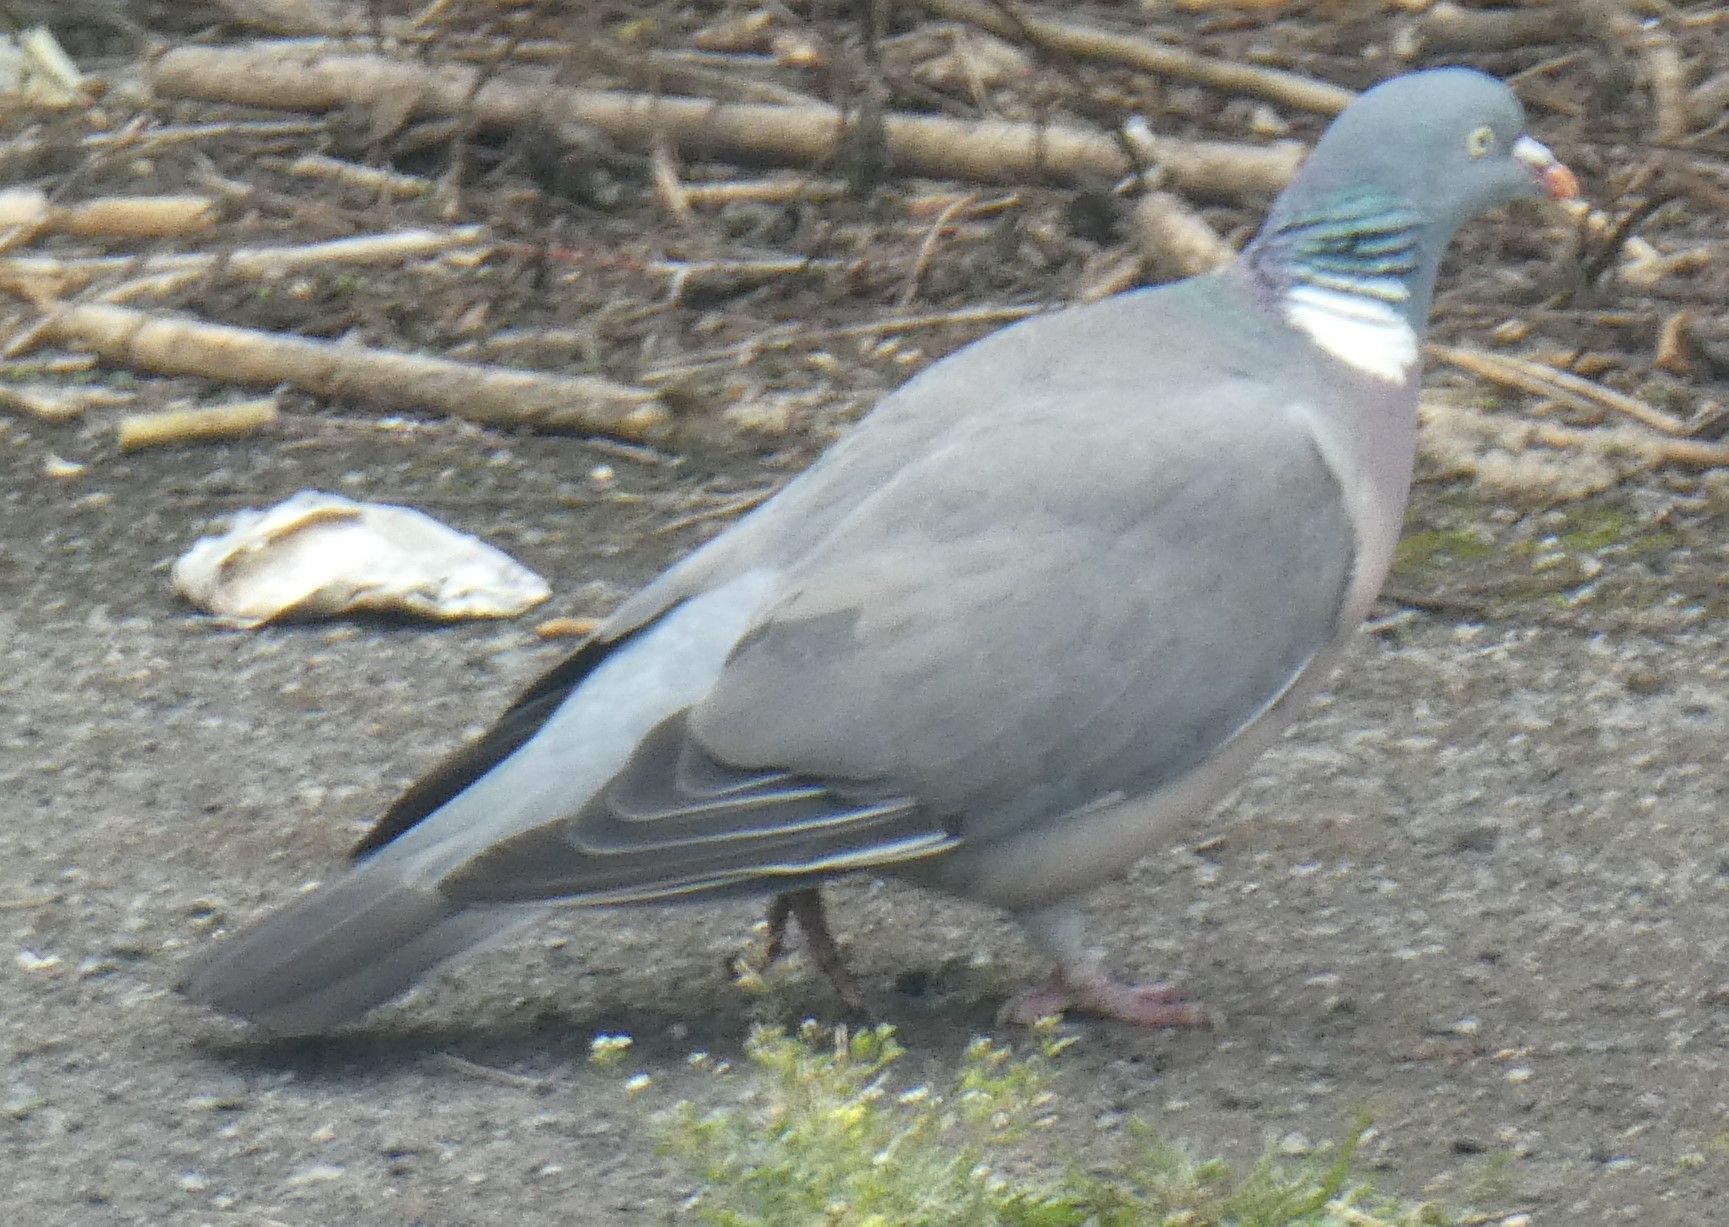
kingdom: Animalia
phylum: Chordata
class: Aves
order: Columbiformes
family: Columbidae
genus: Columba
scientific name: Columba palumbus
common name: Common wood pigeon
